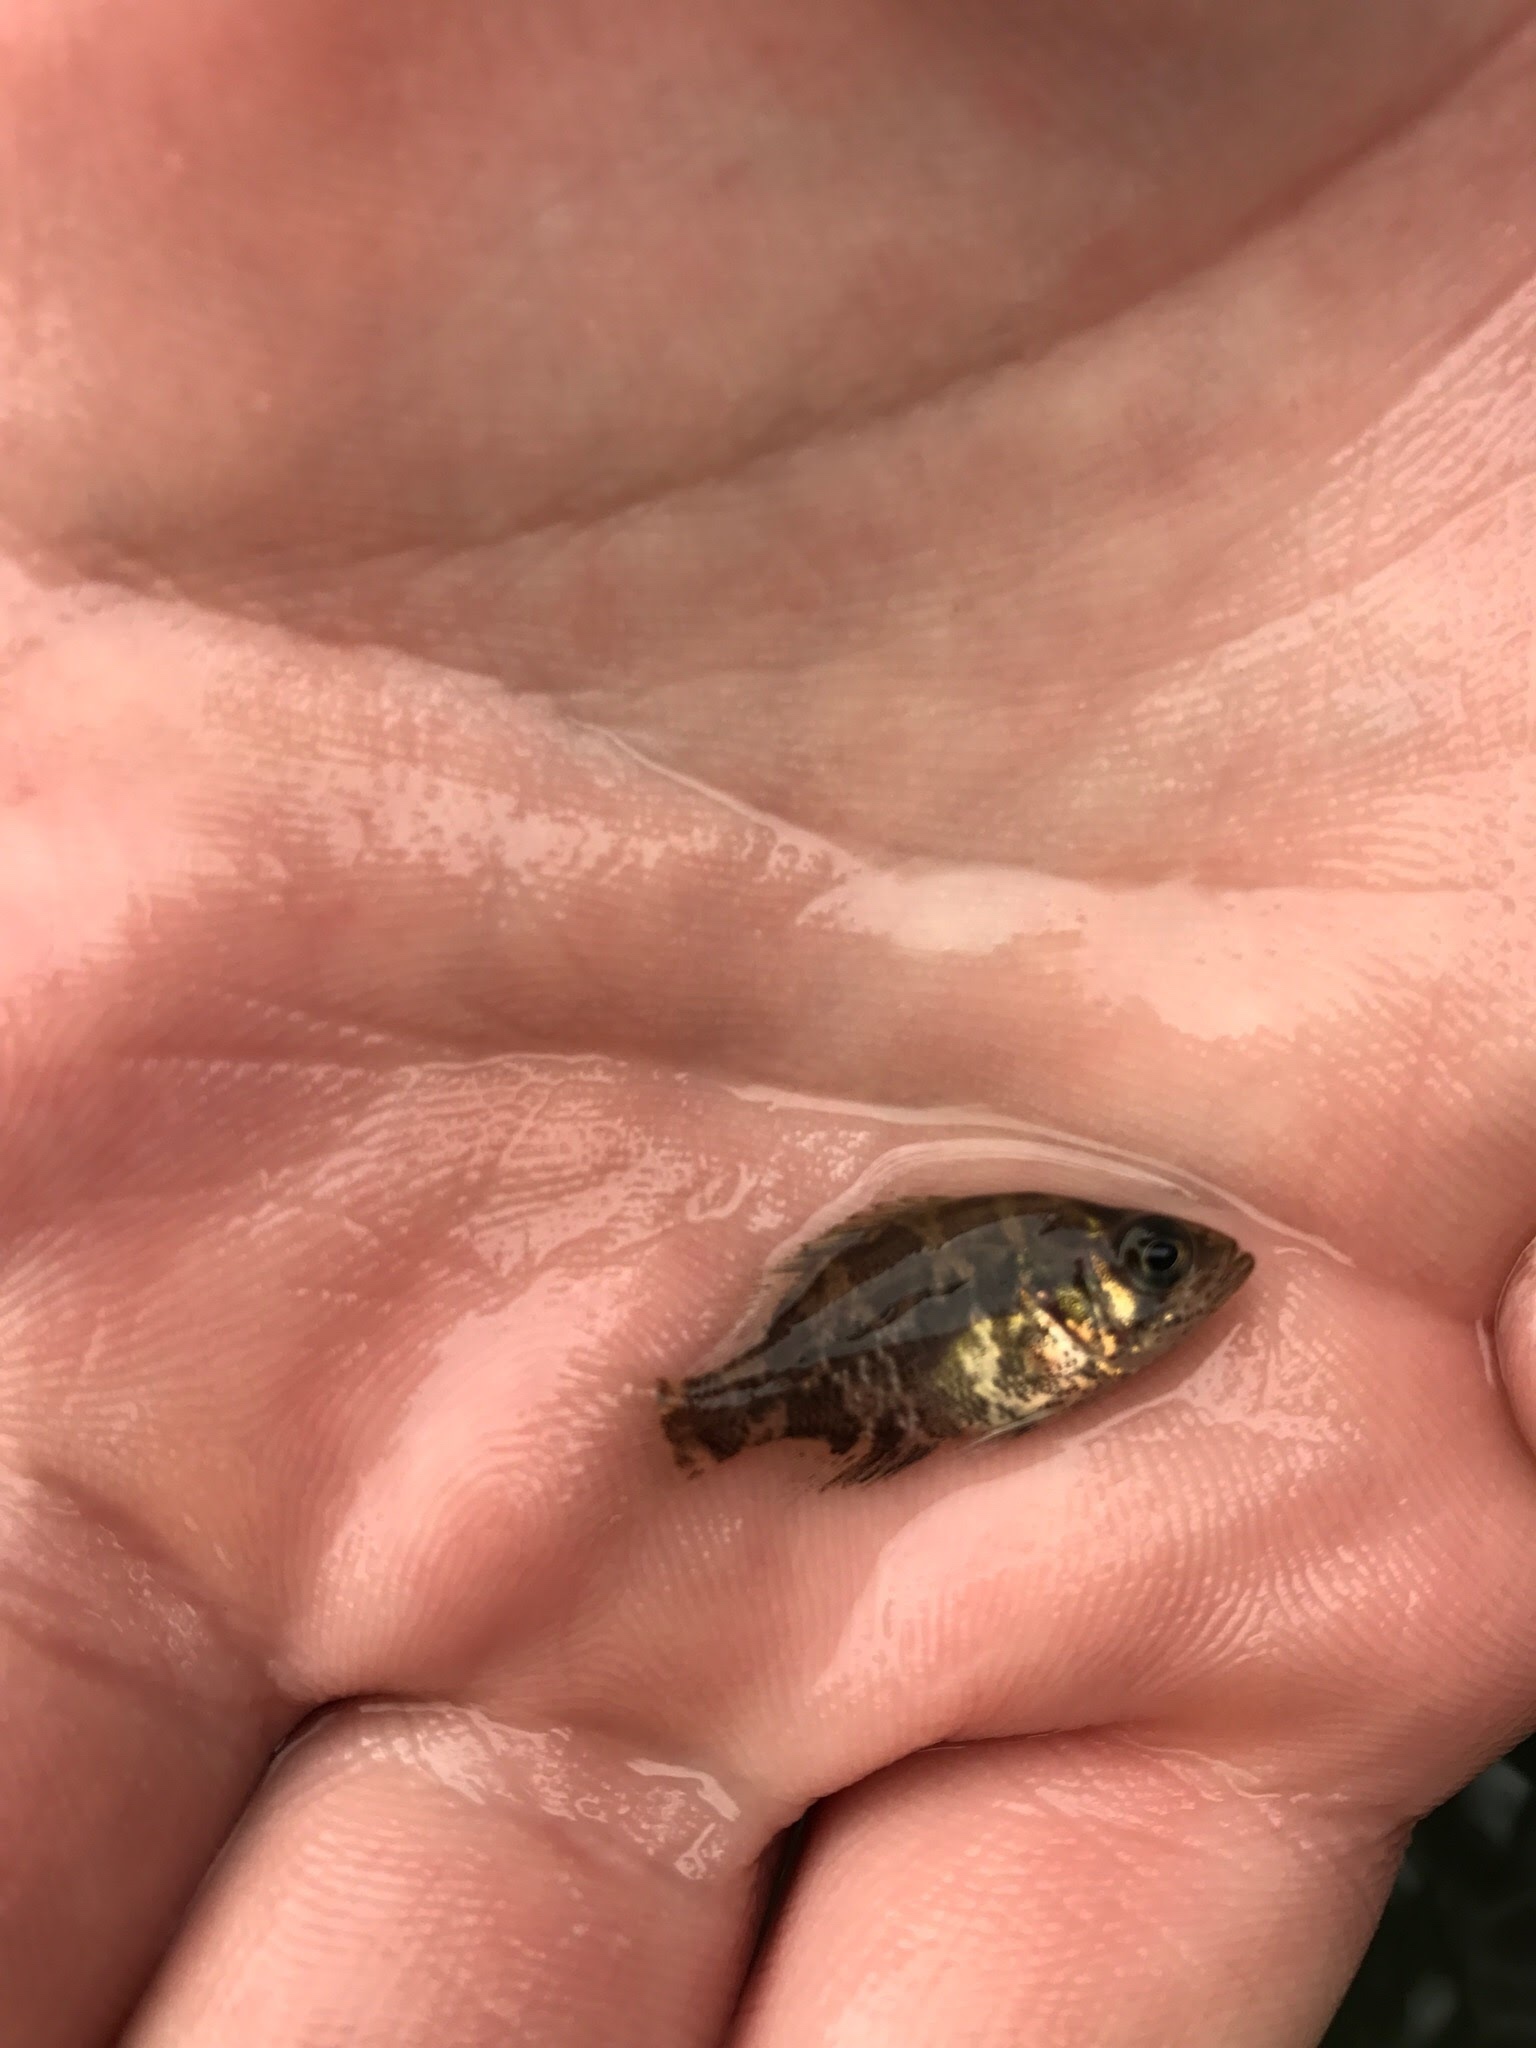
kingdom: Animalia
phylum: Chordata
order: Perciformes
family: Centrarchidae
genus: Ambloplites
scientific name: Ambloplites rupestris
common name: Rock bass
